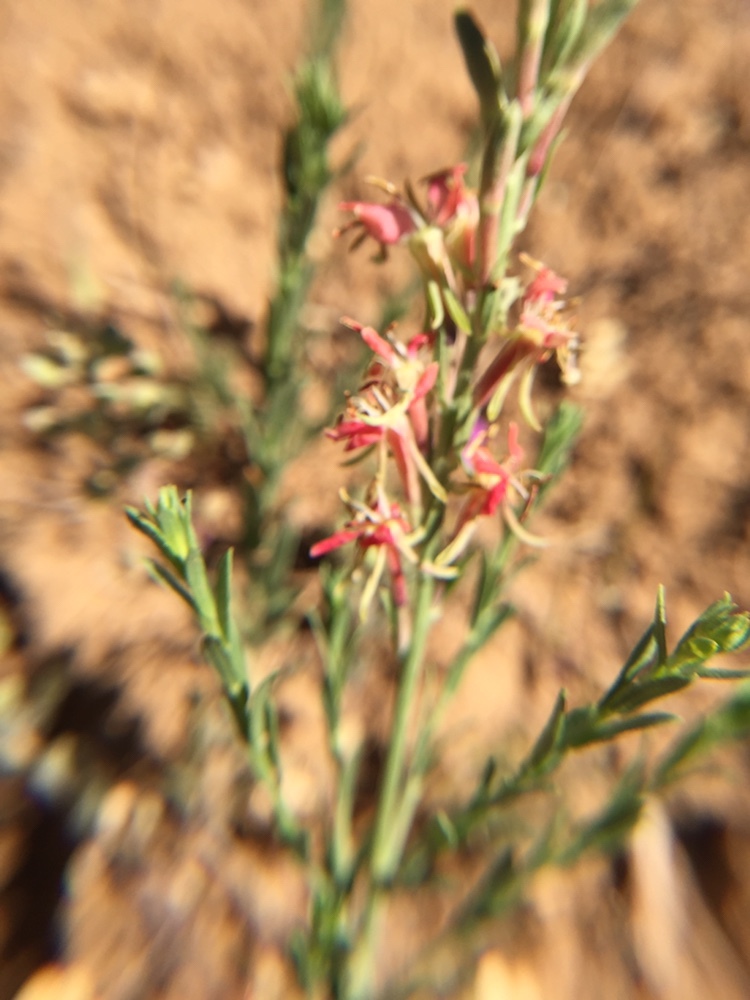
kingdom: Plantae
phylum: Tracheophyta
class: Magnoliopsida
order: Myrtales
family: Onagraceae
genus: Oenothera
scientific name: Oenothera suffrutescens
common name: Scarlet beeblossom
